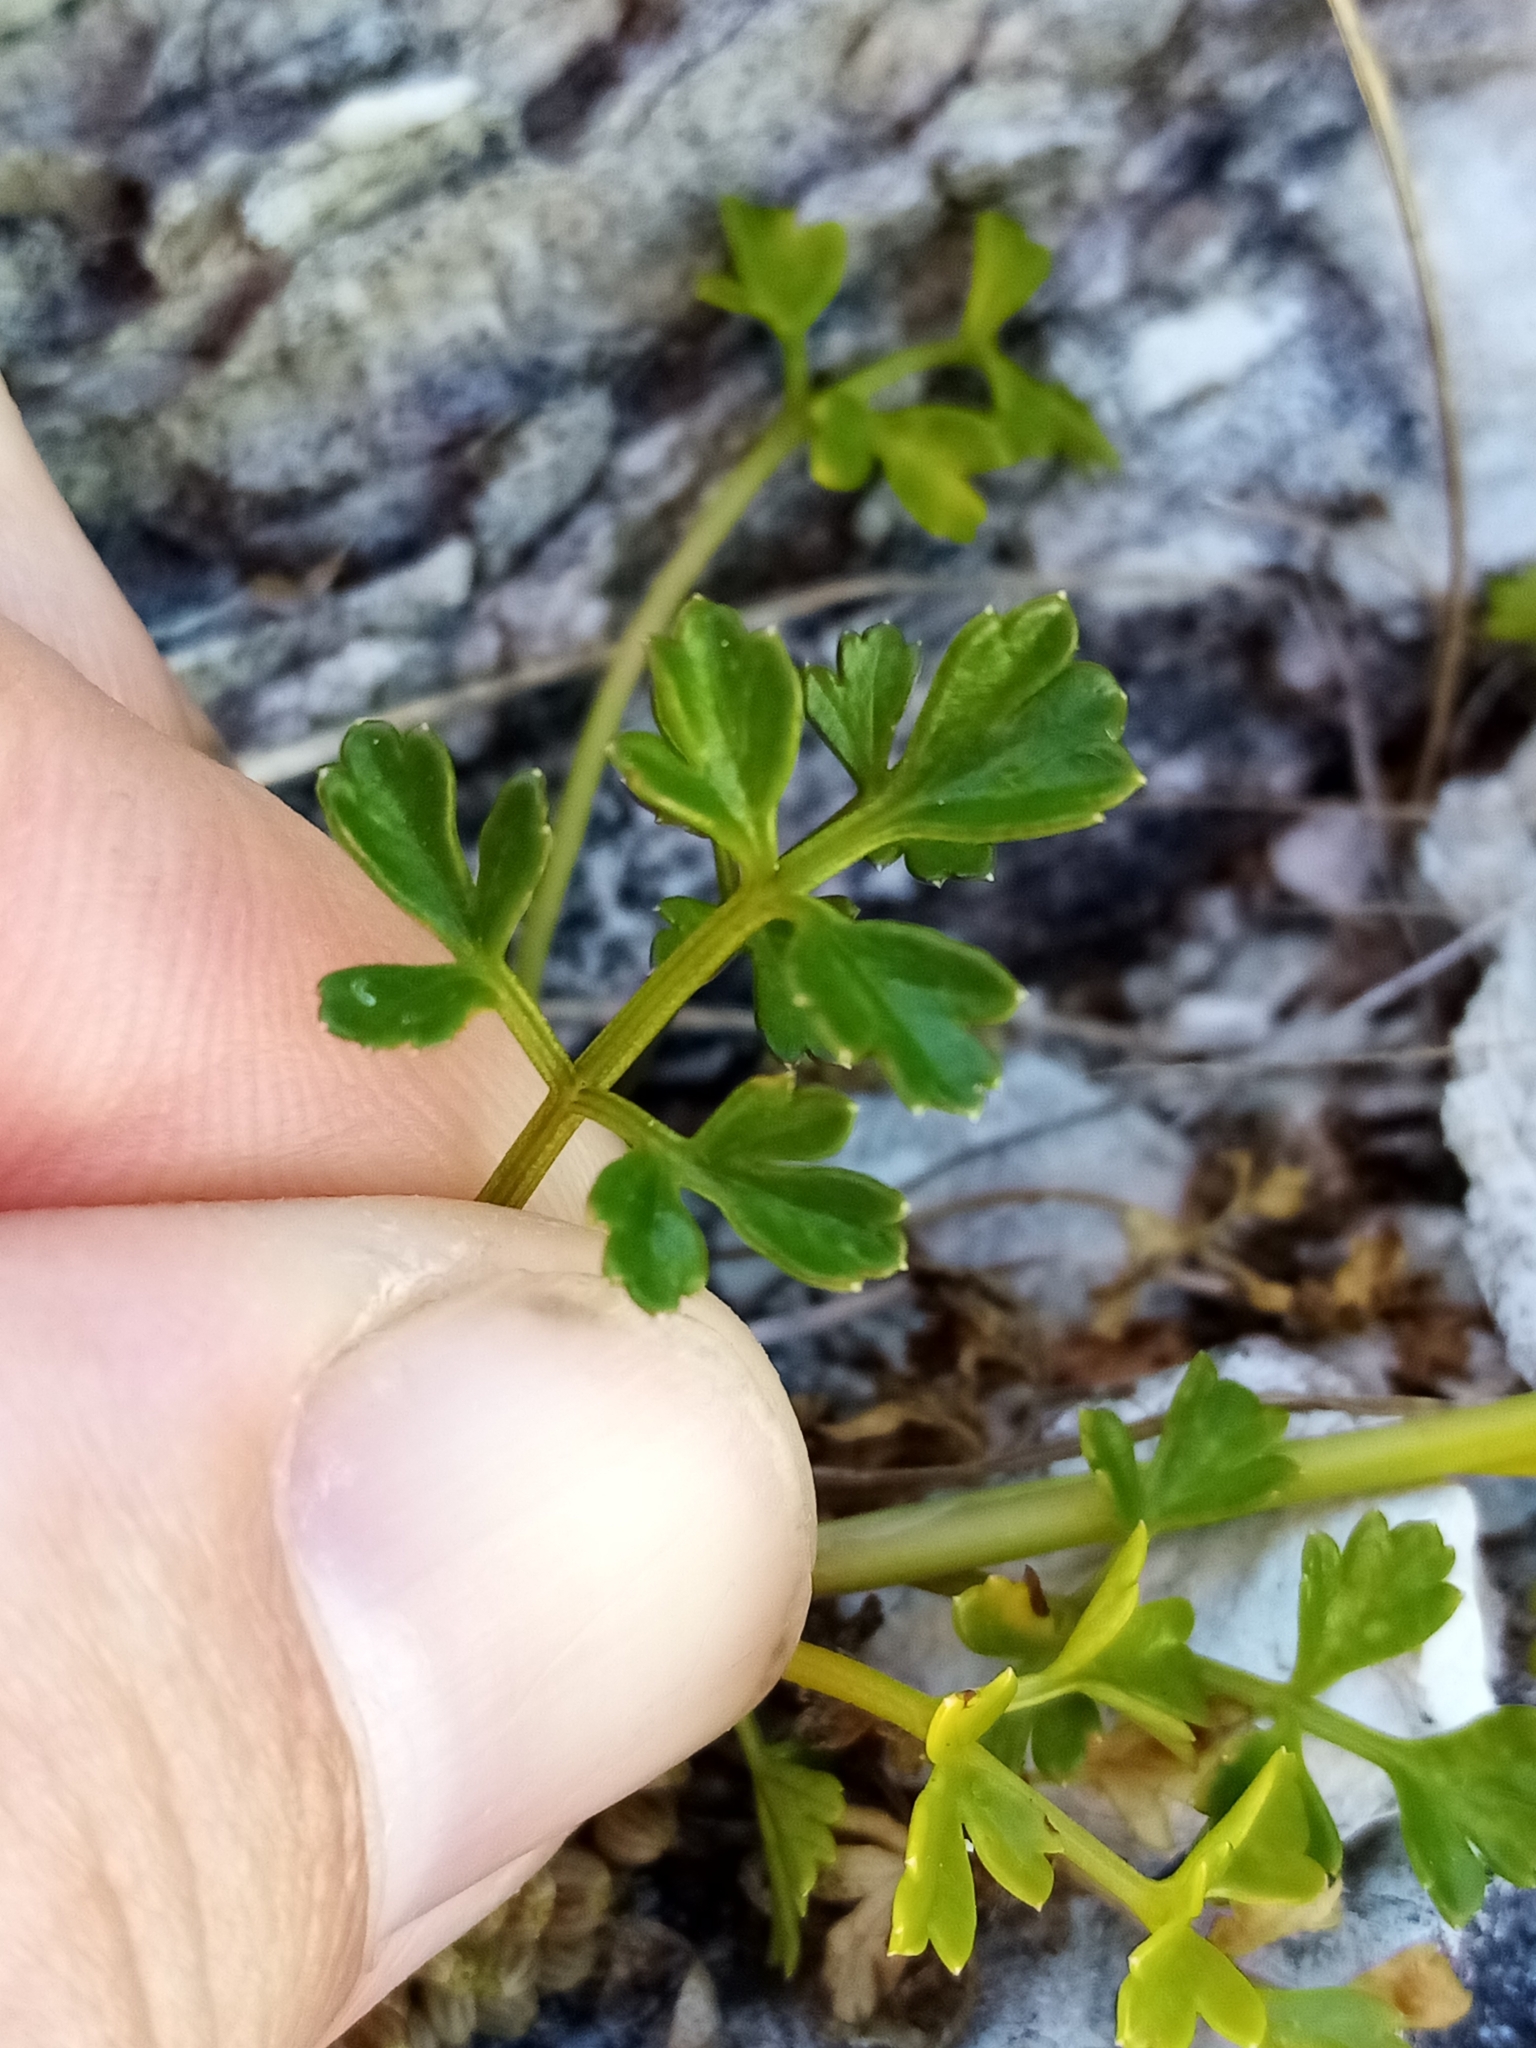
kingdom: Plantae
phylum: Tracheophyta
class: Magnoliopsida
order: Apiales
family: Apiaceae
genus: Apium
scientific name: Apium prostratum
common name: Prostrate marshwort
